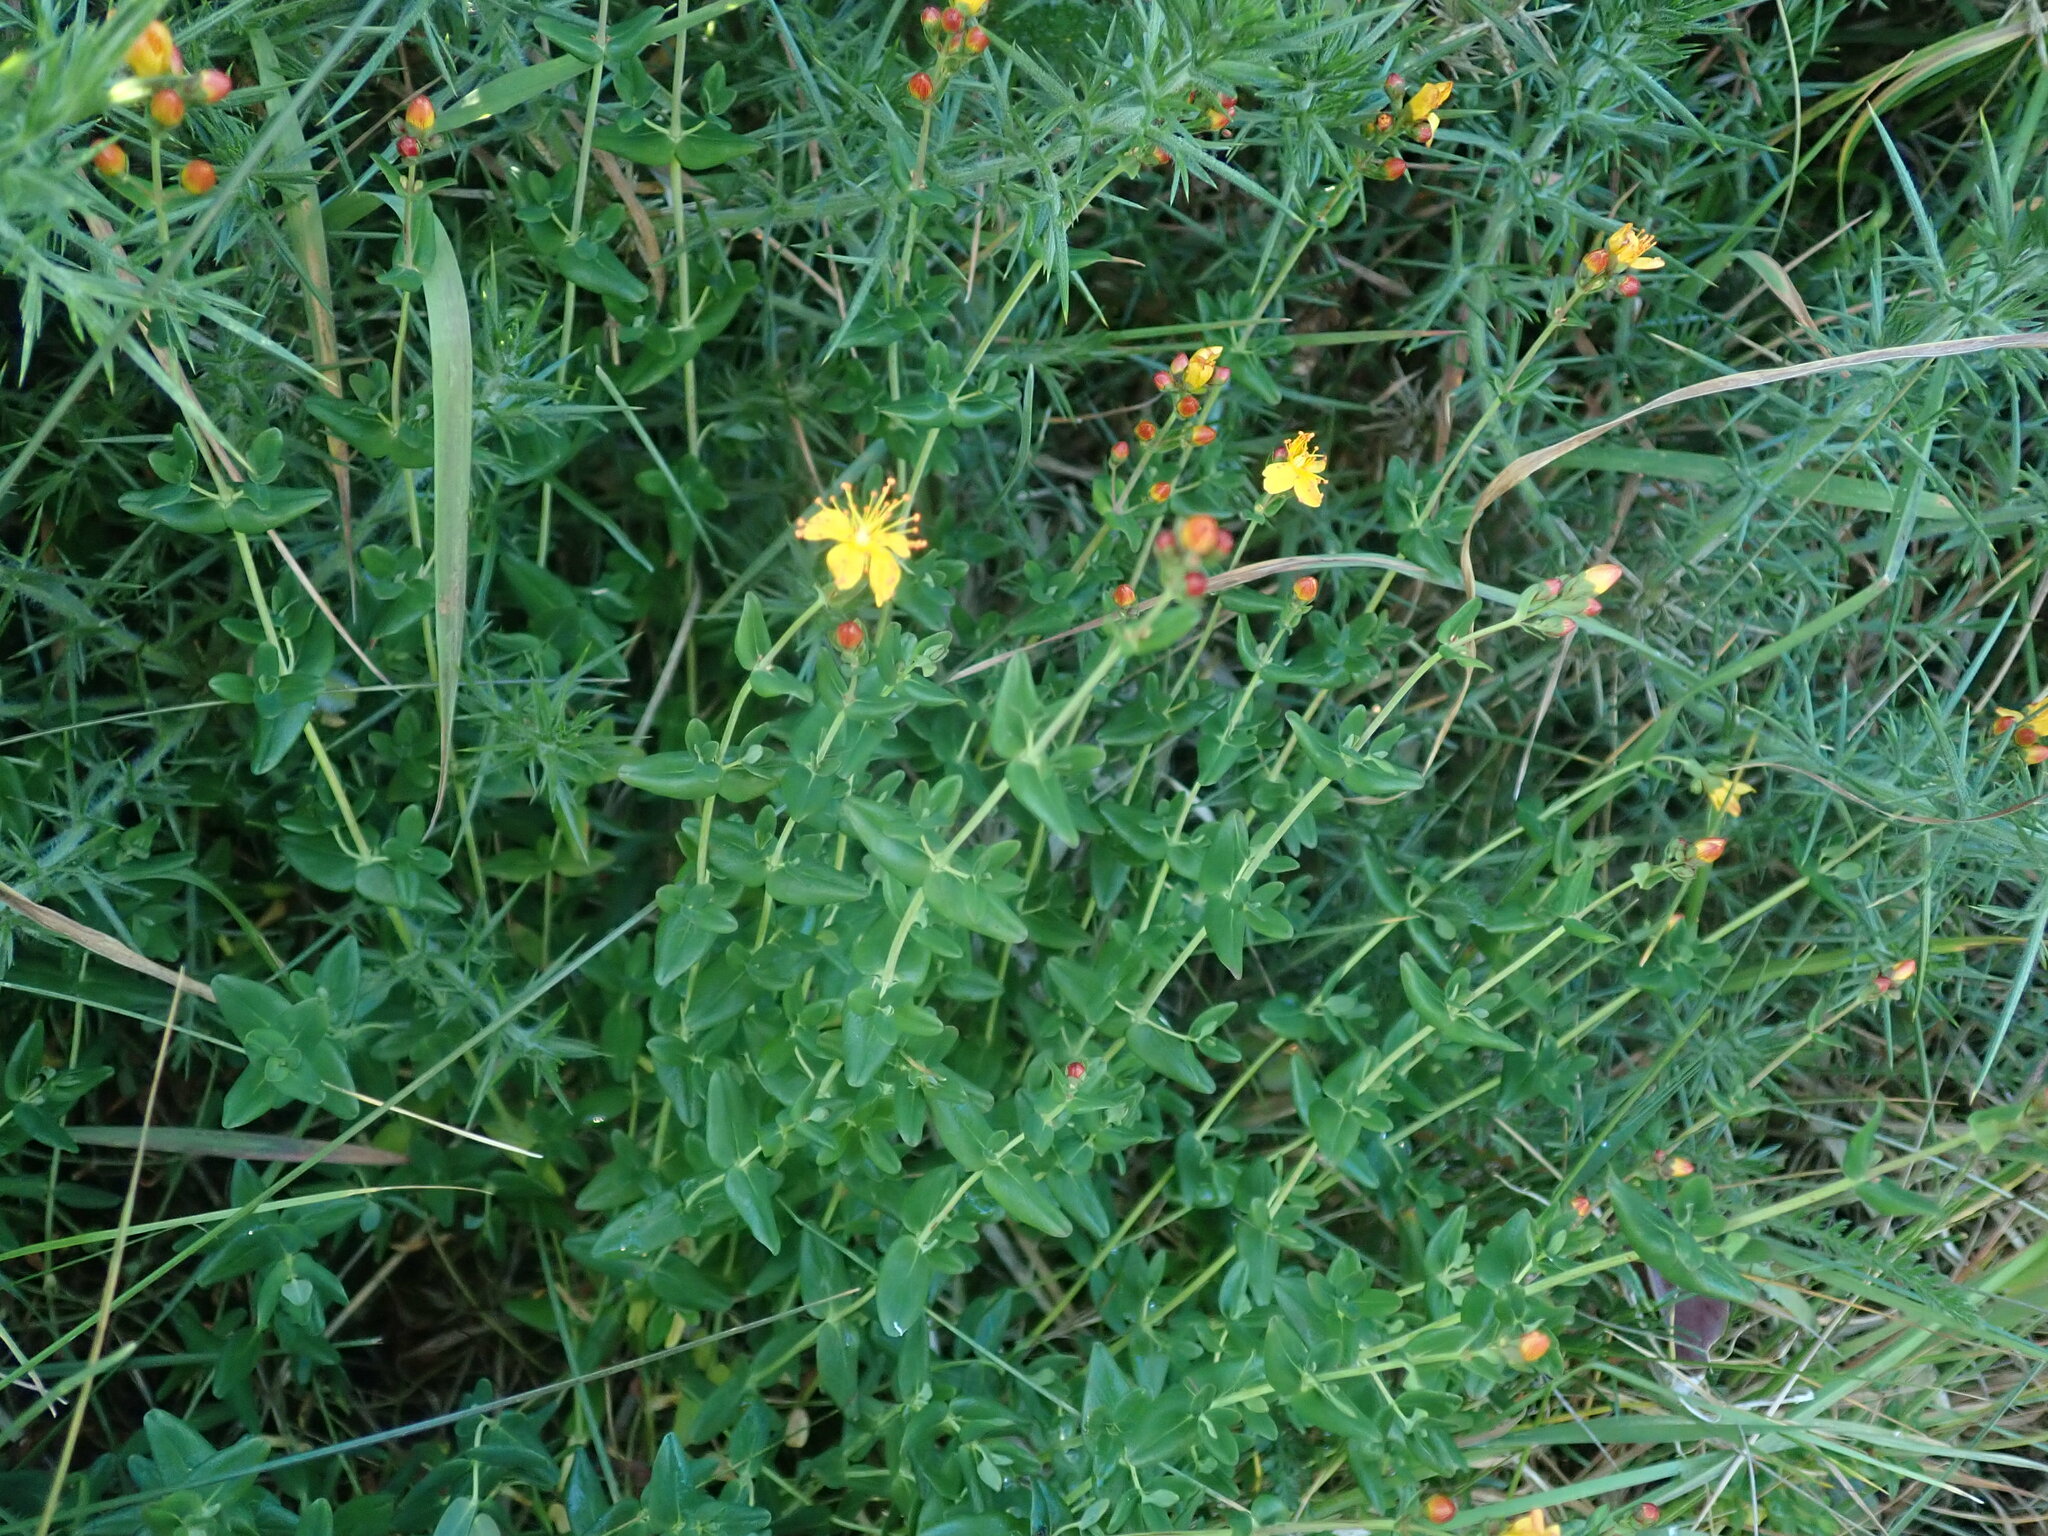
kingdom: Plantae
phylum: Tracheophyta
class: Magnoliopsida
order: Malpighiales
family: Hypericaceae
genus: Hypericum
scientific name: Hypericum pulchrum
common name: Slender st. john's-wort
